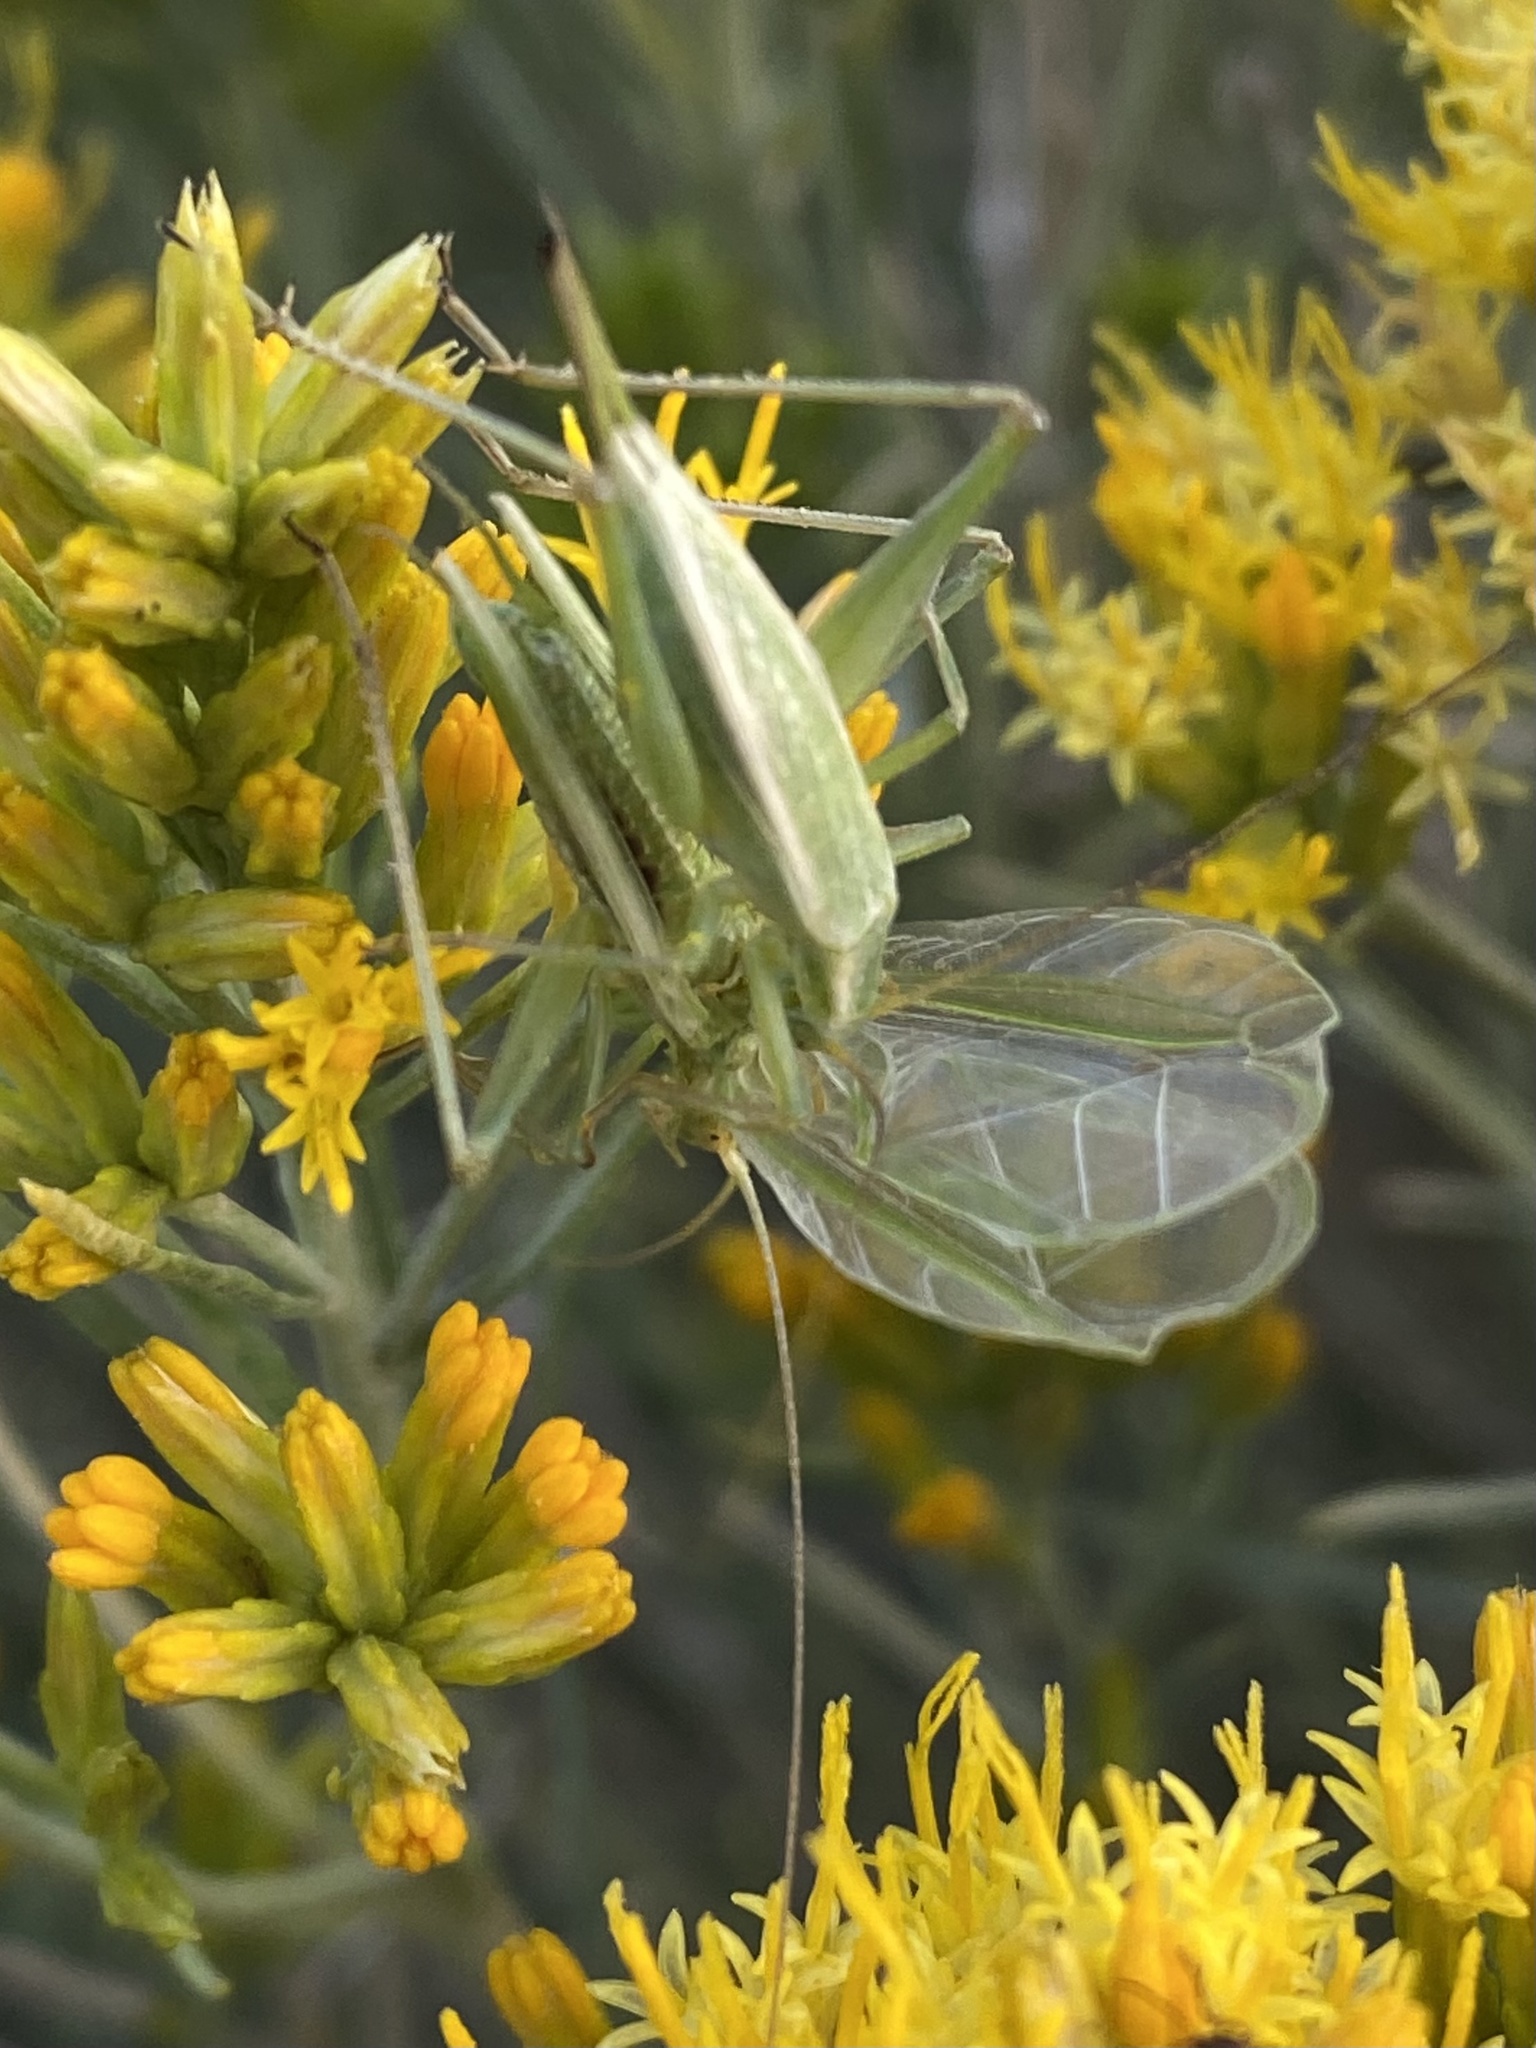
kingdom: Animalia
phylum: Arthropoda
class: Insecta
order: Orthoptera
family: Gryllidae
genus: Oecanthus
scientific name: Oecanthus walkeri
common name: Walker's tree cricket
